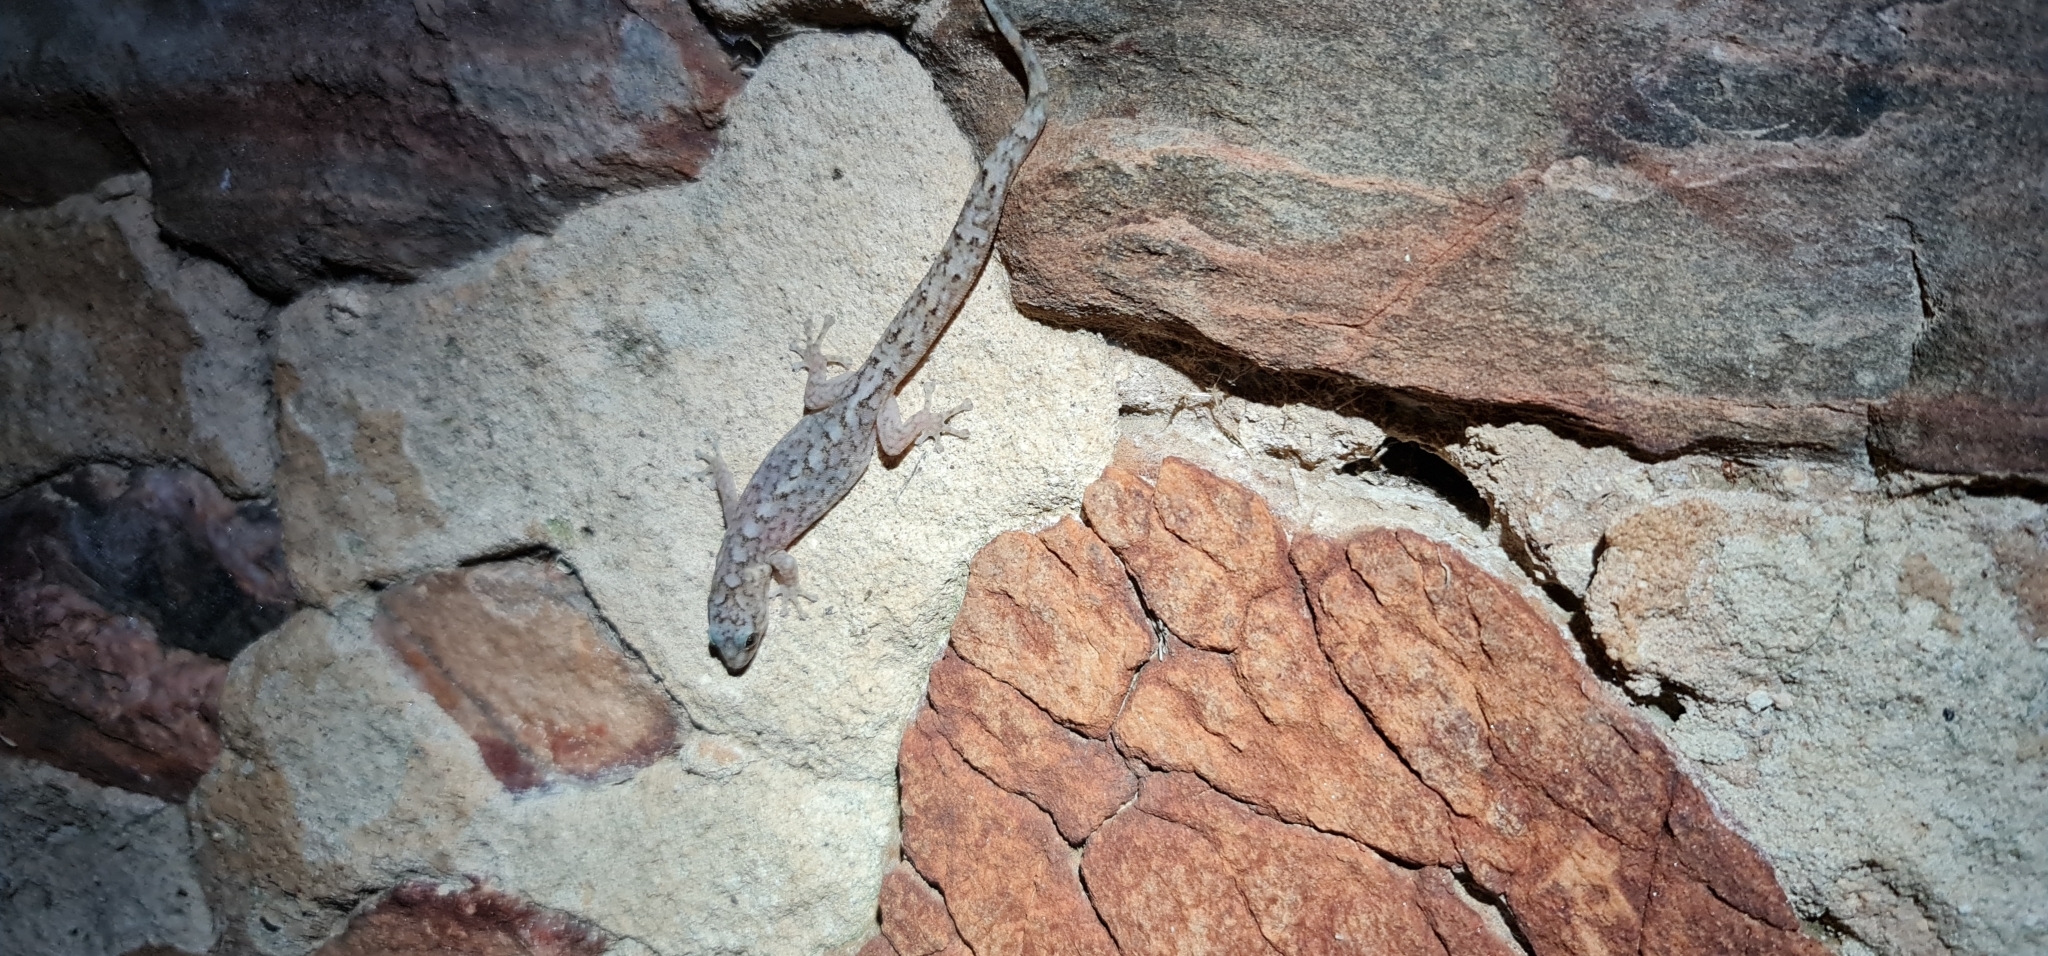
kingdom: Animalia
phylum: Chordata
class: Squamata
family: Gekkonidae
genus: Christinus
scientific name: Christinus marmoratus
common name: Marbled gecko
